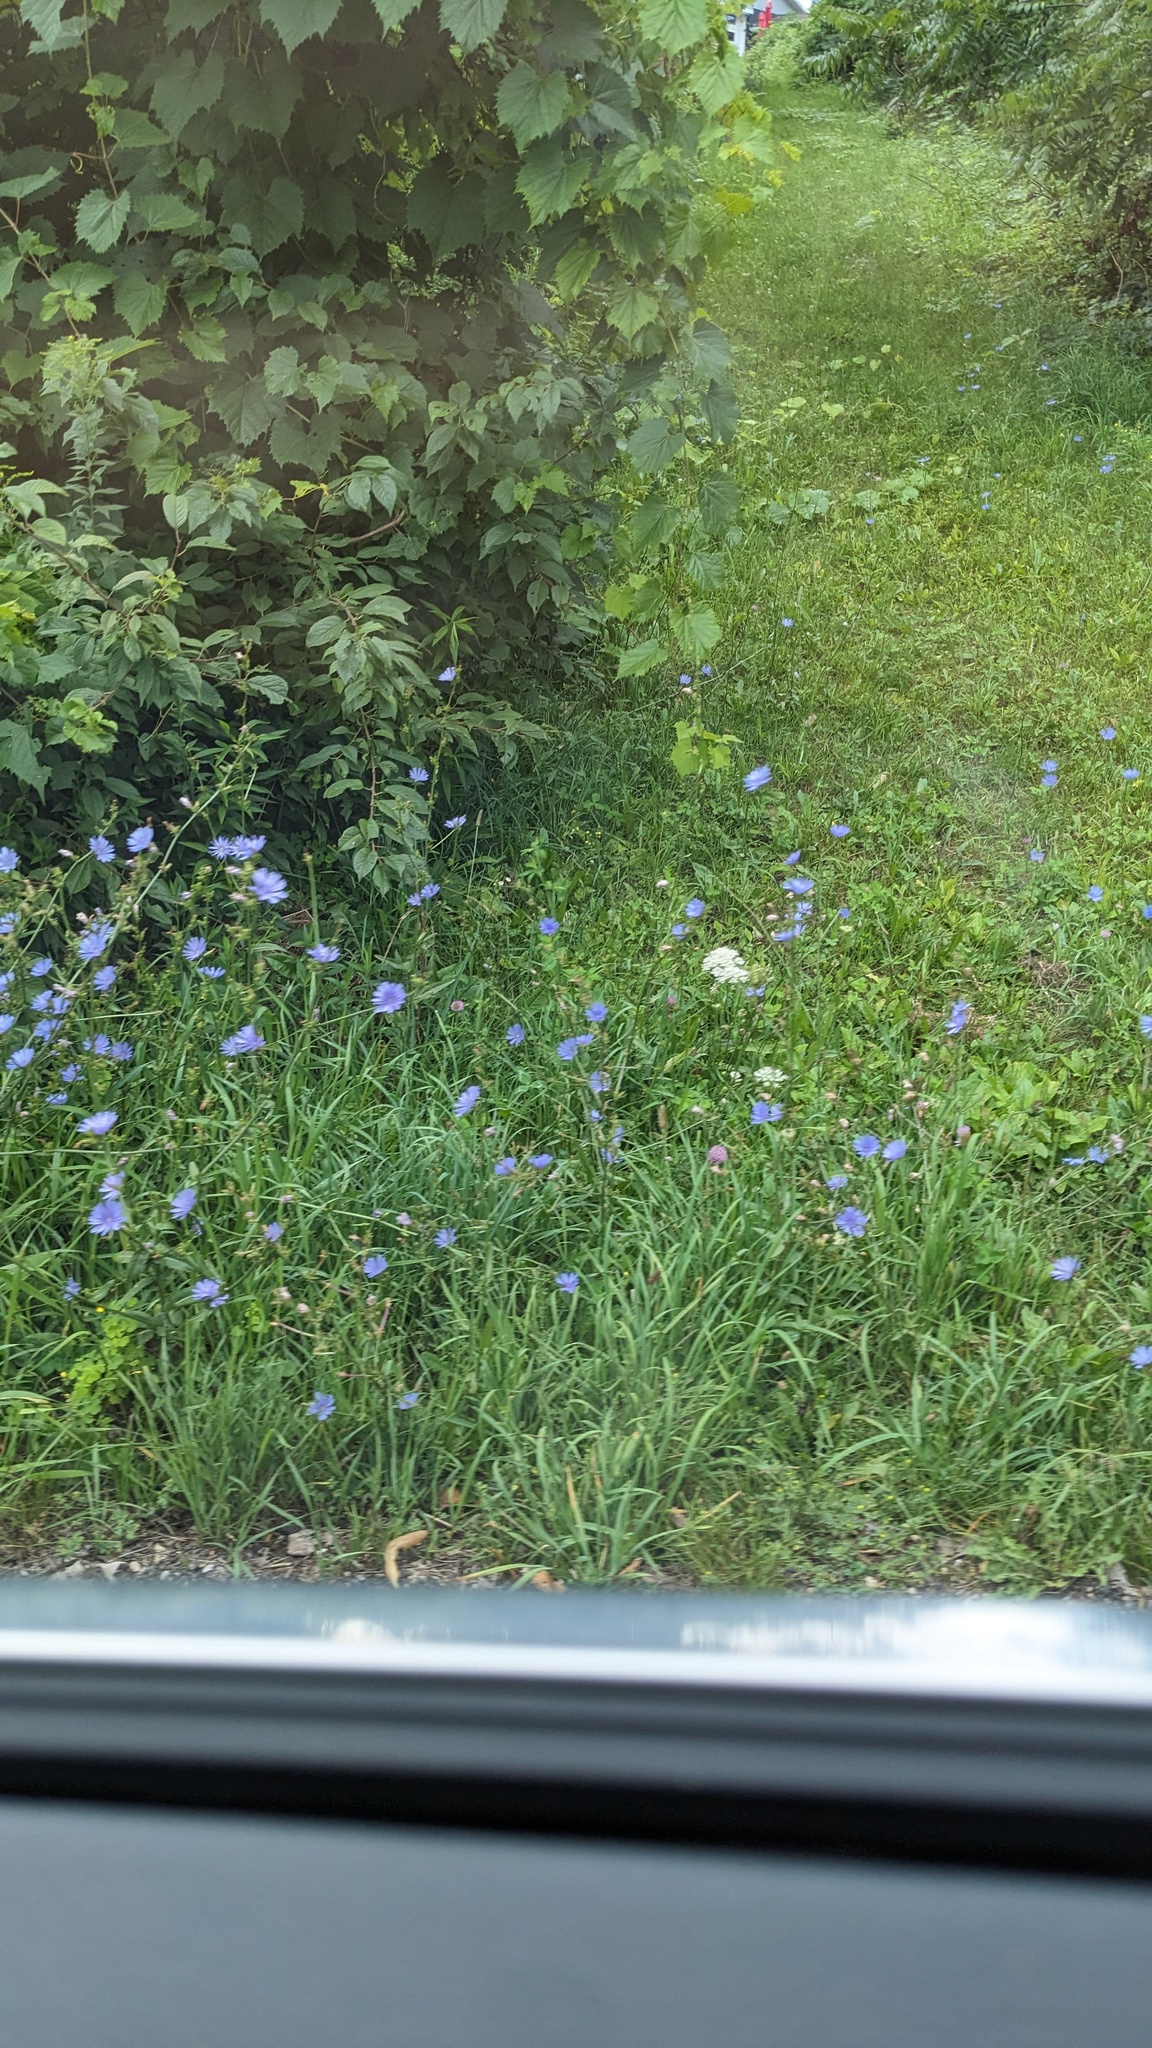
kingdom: Plantae
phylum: Tracheophyta
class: Magnoliopsida
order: Asterales
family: Asteraceae
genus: Cichorium
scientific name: Cichorium intybus
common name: Chicory
